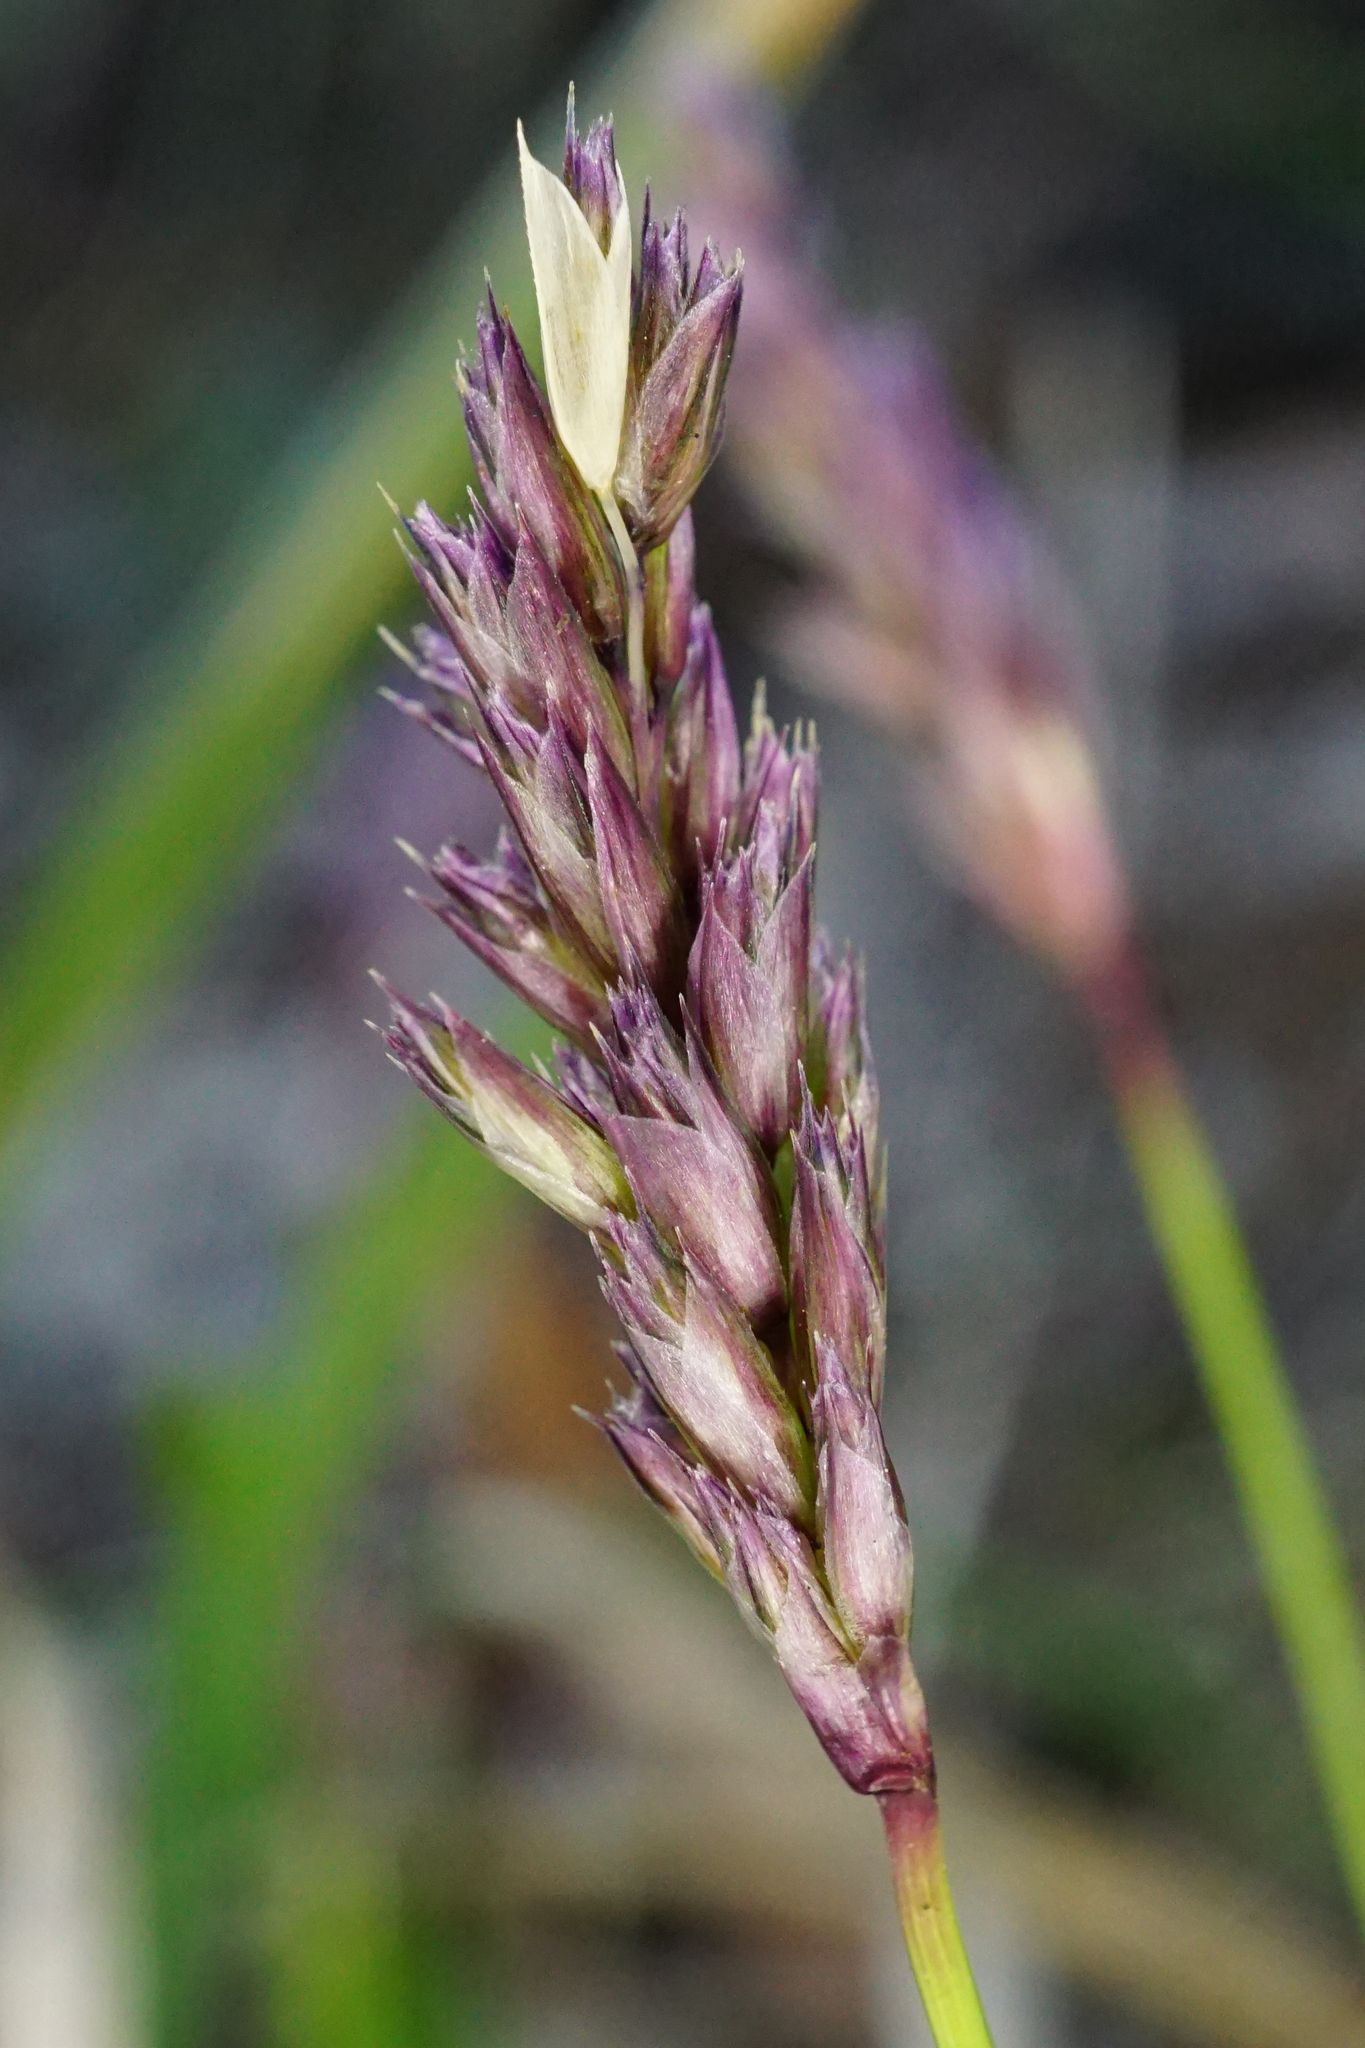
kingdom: Plantae
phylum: Tracheophyta
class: Liliopsida
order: Poales
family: Poaceae
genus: Sesleria
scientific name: Sesleria caerulea
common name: Blue moor-grass
